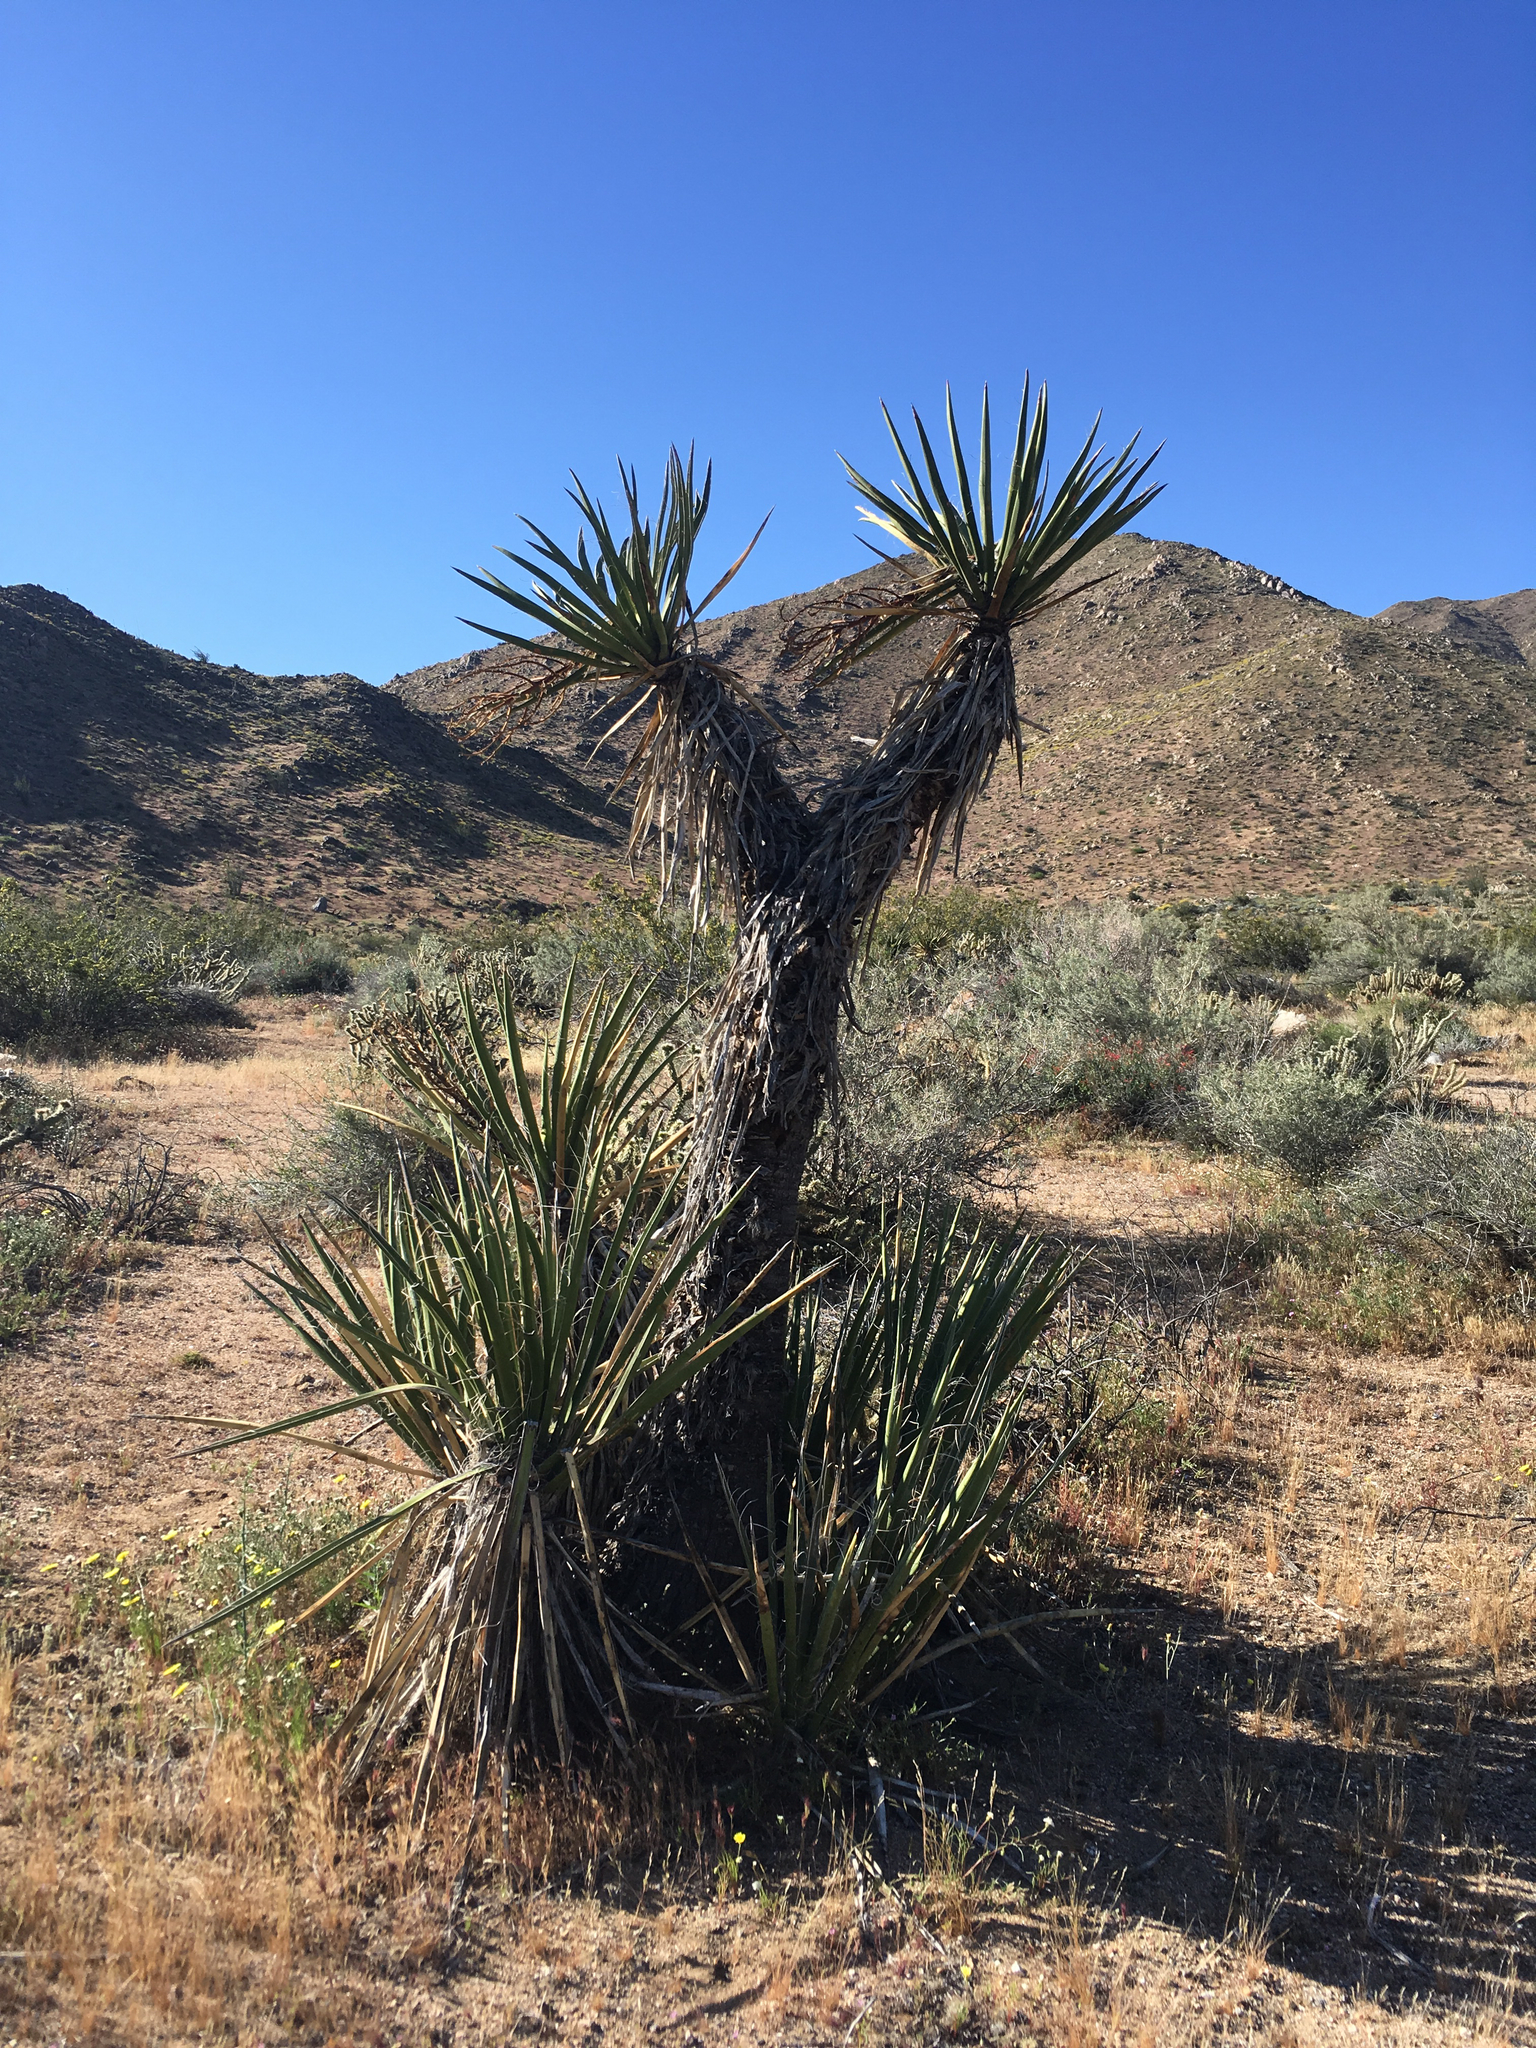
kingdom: Plantae
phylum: Tracheophyta
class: Liliopsida
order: Asparagales
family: Asparagaceae
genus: Yucca
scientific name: Yucca schidigera
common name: Mojave yucca
